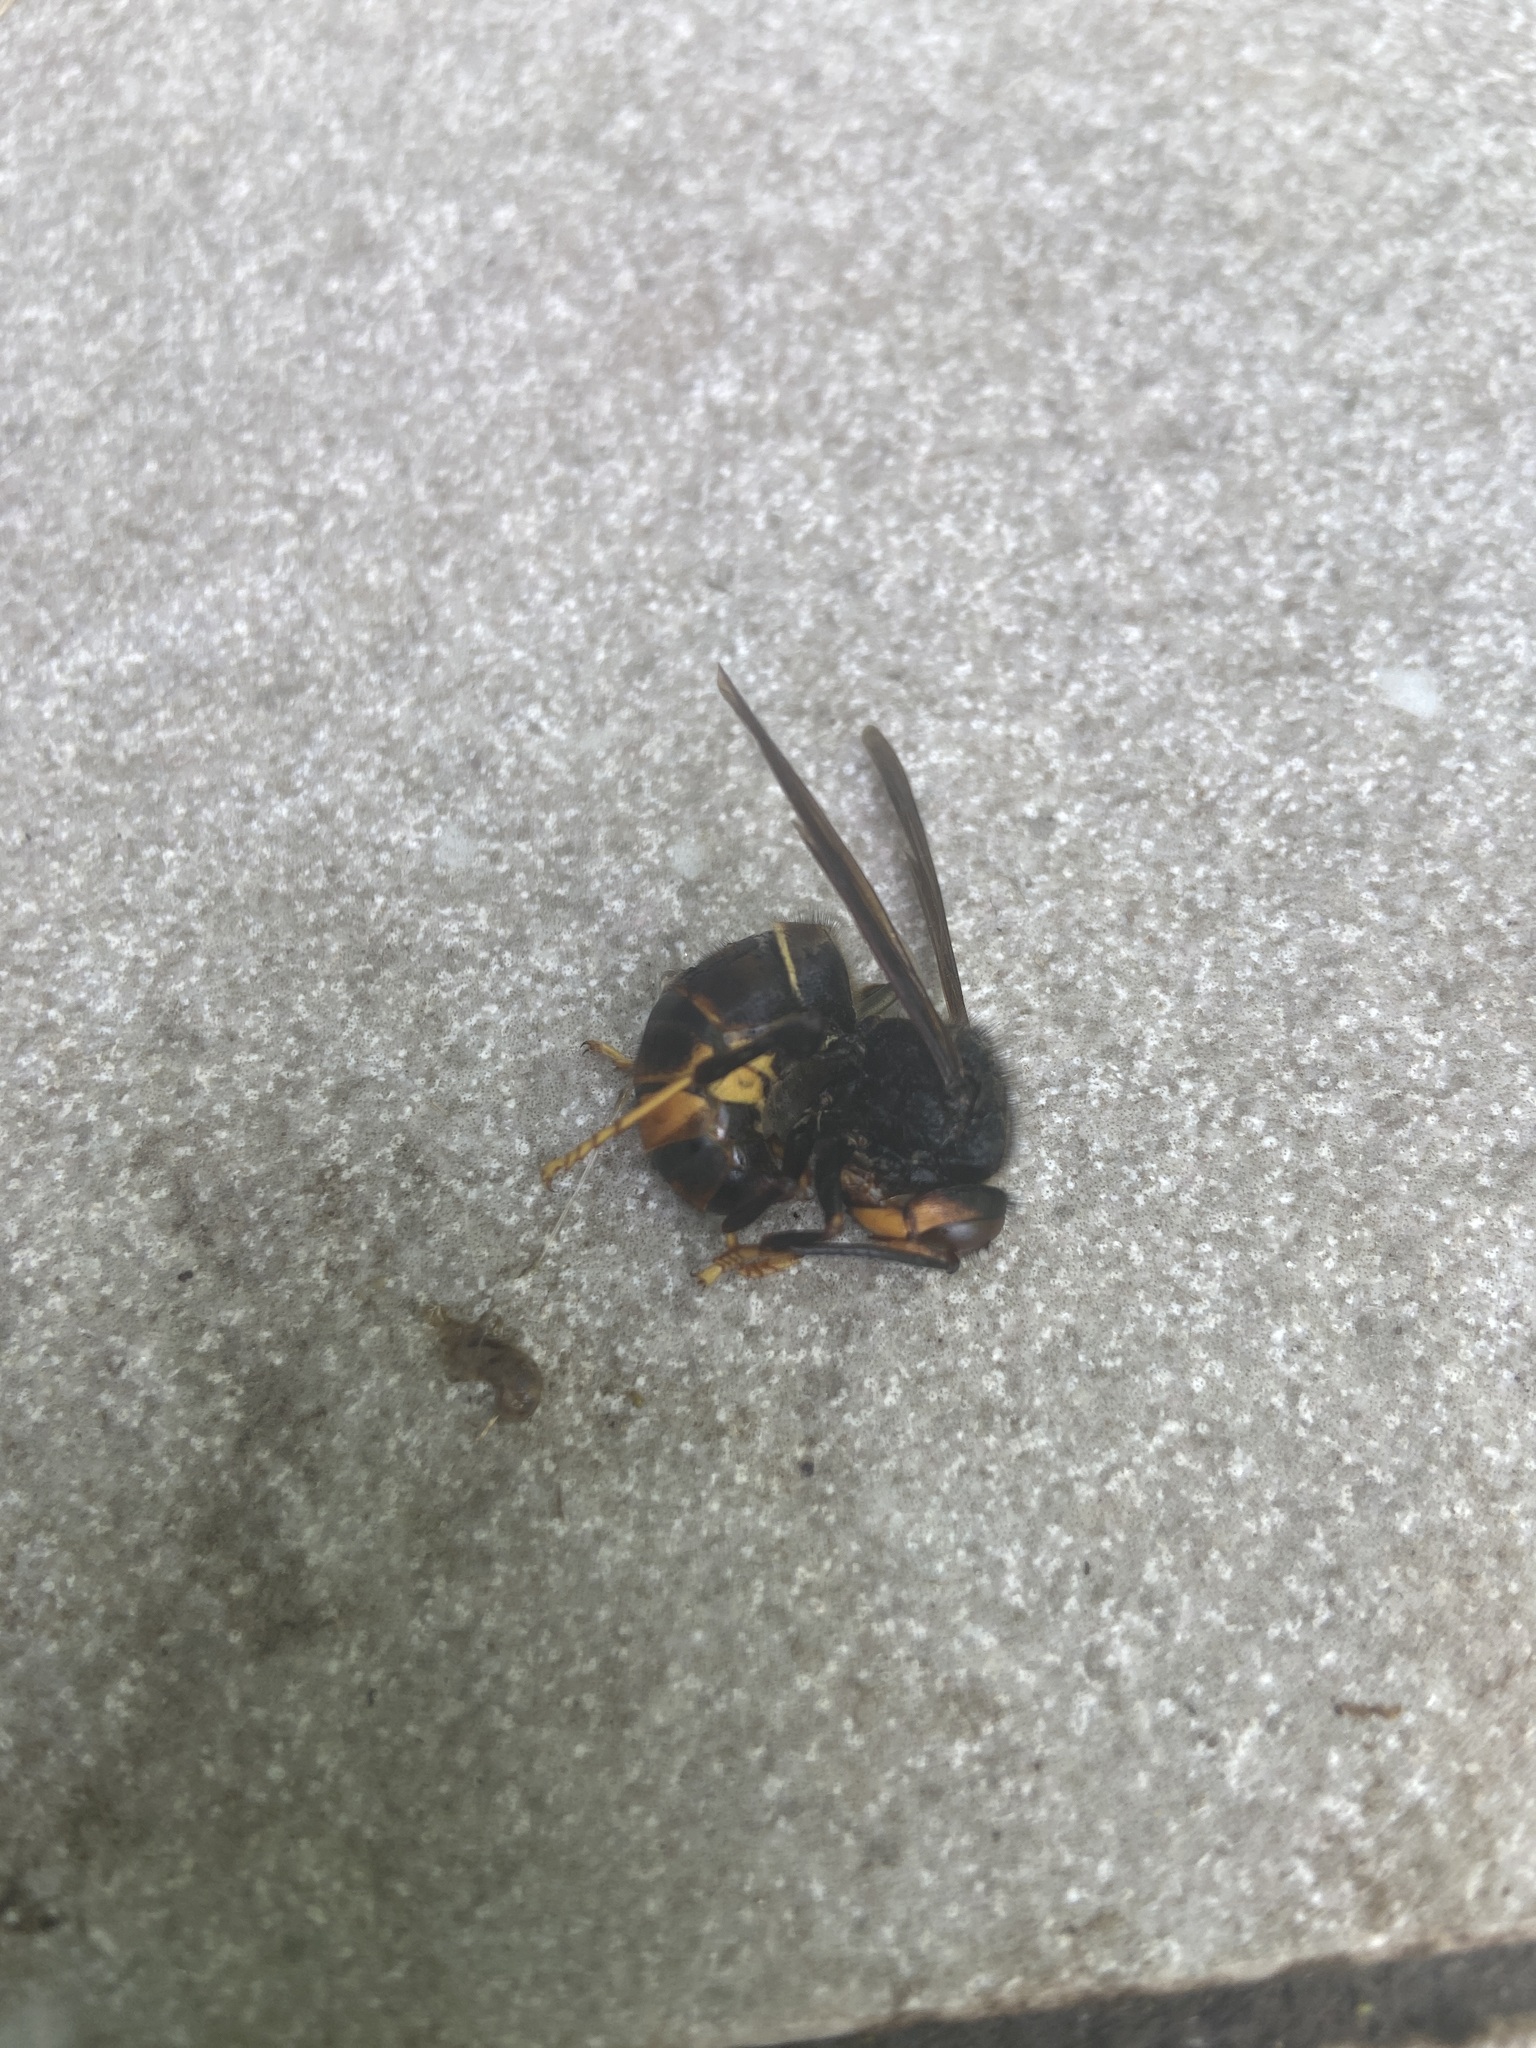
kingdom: Animalia
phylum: Arthropoda
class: Insecta
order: Hymenoptera
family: Vespidae
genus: Vespa
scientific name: Vespa velutina
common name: Asian hornet
